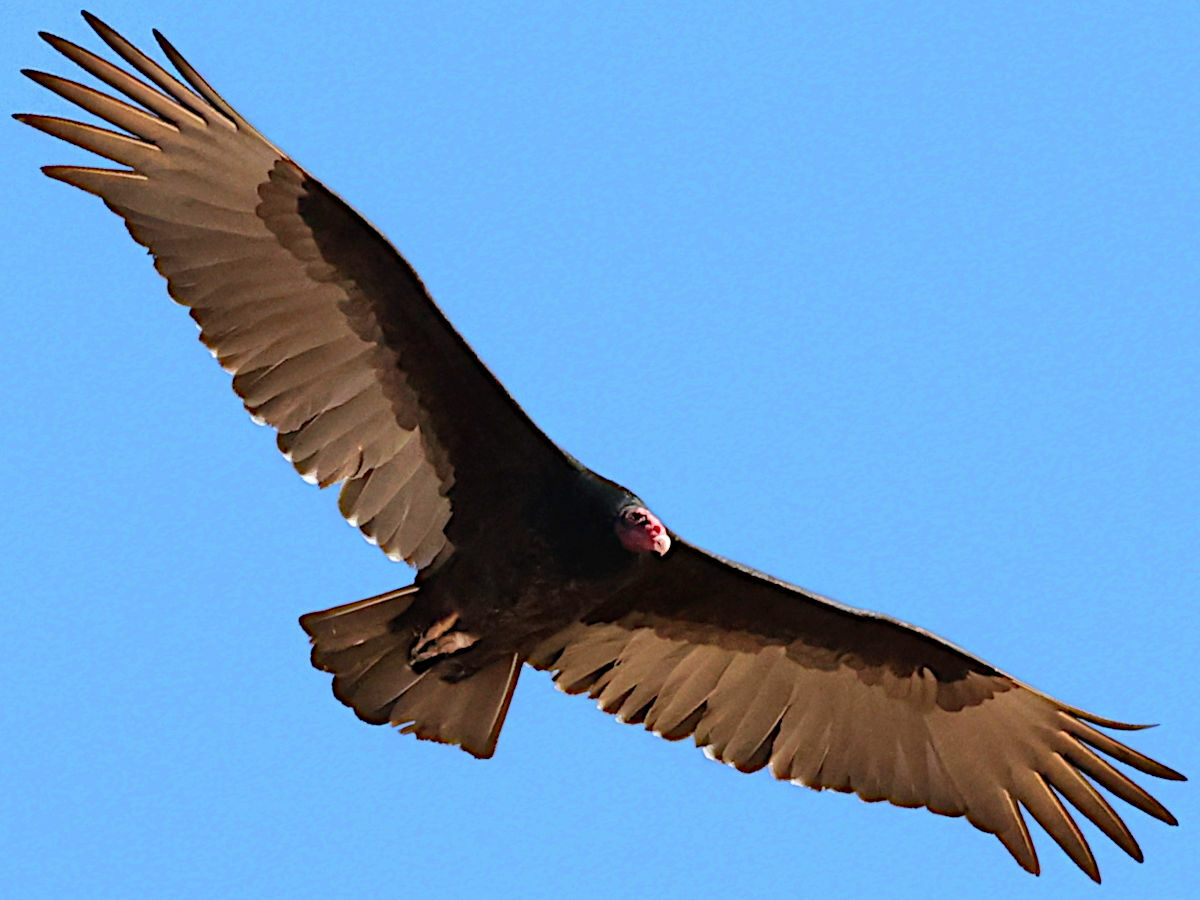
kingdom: Animalia
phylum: Chordata
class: Aves
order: Accipitriformes
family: Cathartidae
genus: Cathartes
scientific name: Cathartes aura
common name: Turkey vulture
